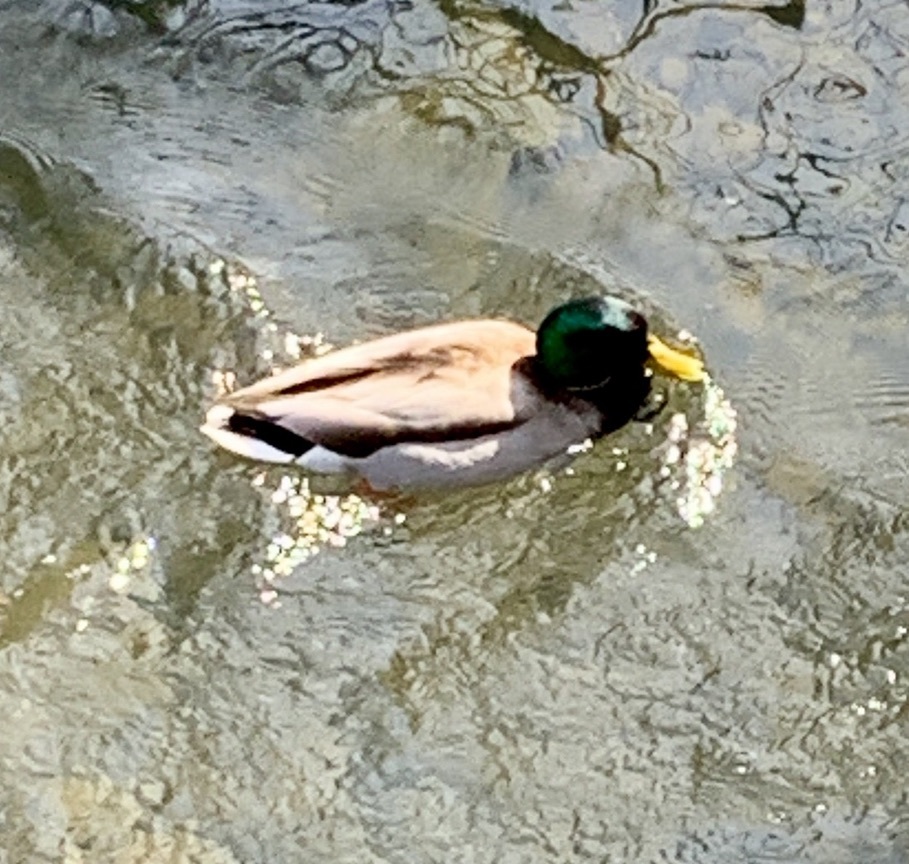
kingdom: Animalia
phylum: Chordata
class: Aves
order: Anseriformes
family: Anatidae
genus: Anas
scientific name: Anas platyrhynchos
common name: Mallard
